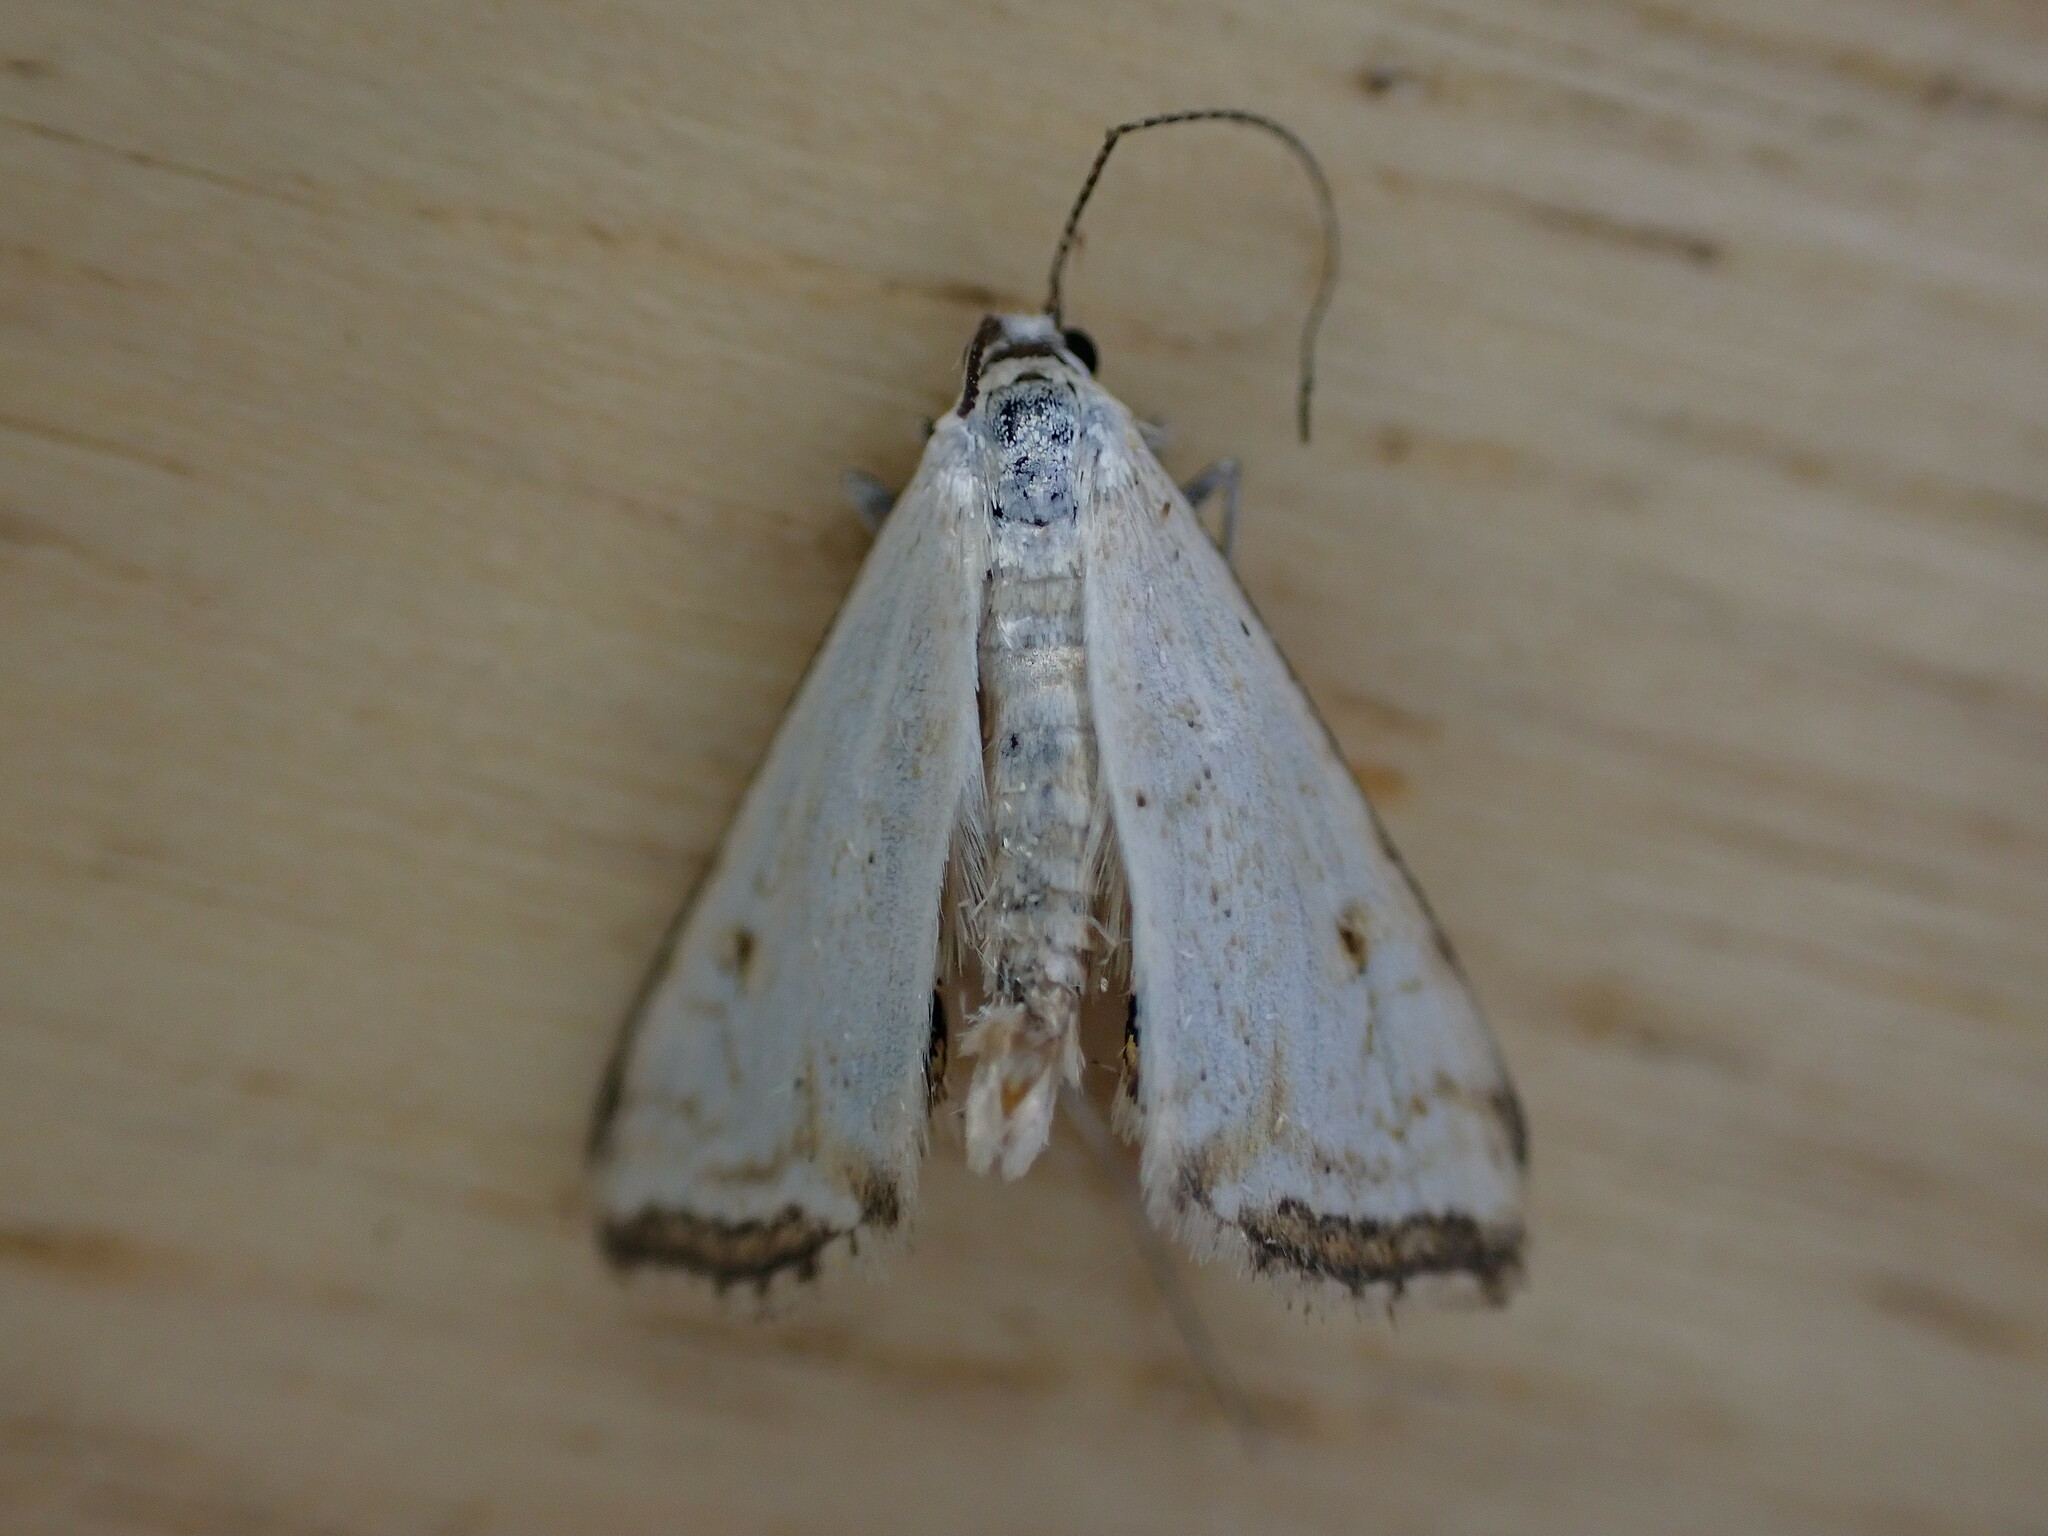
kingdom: Animalia
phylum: Arthropoda
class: Insecta
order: Lepidoptera
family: Crambidae
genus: Cataclysta
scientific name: Cataclysta lemnata
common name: Small china-mark
